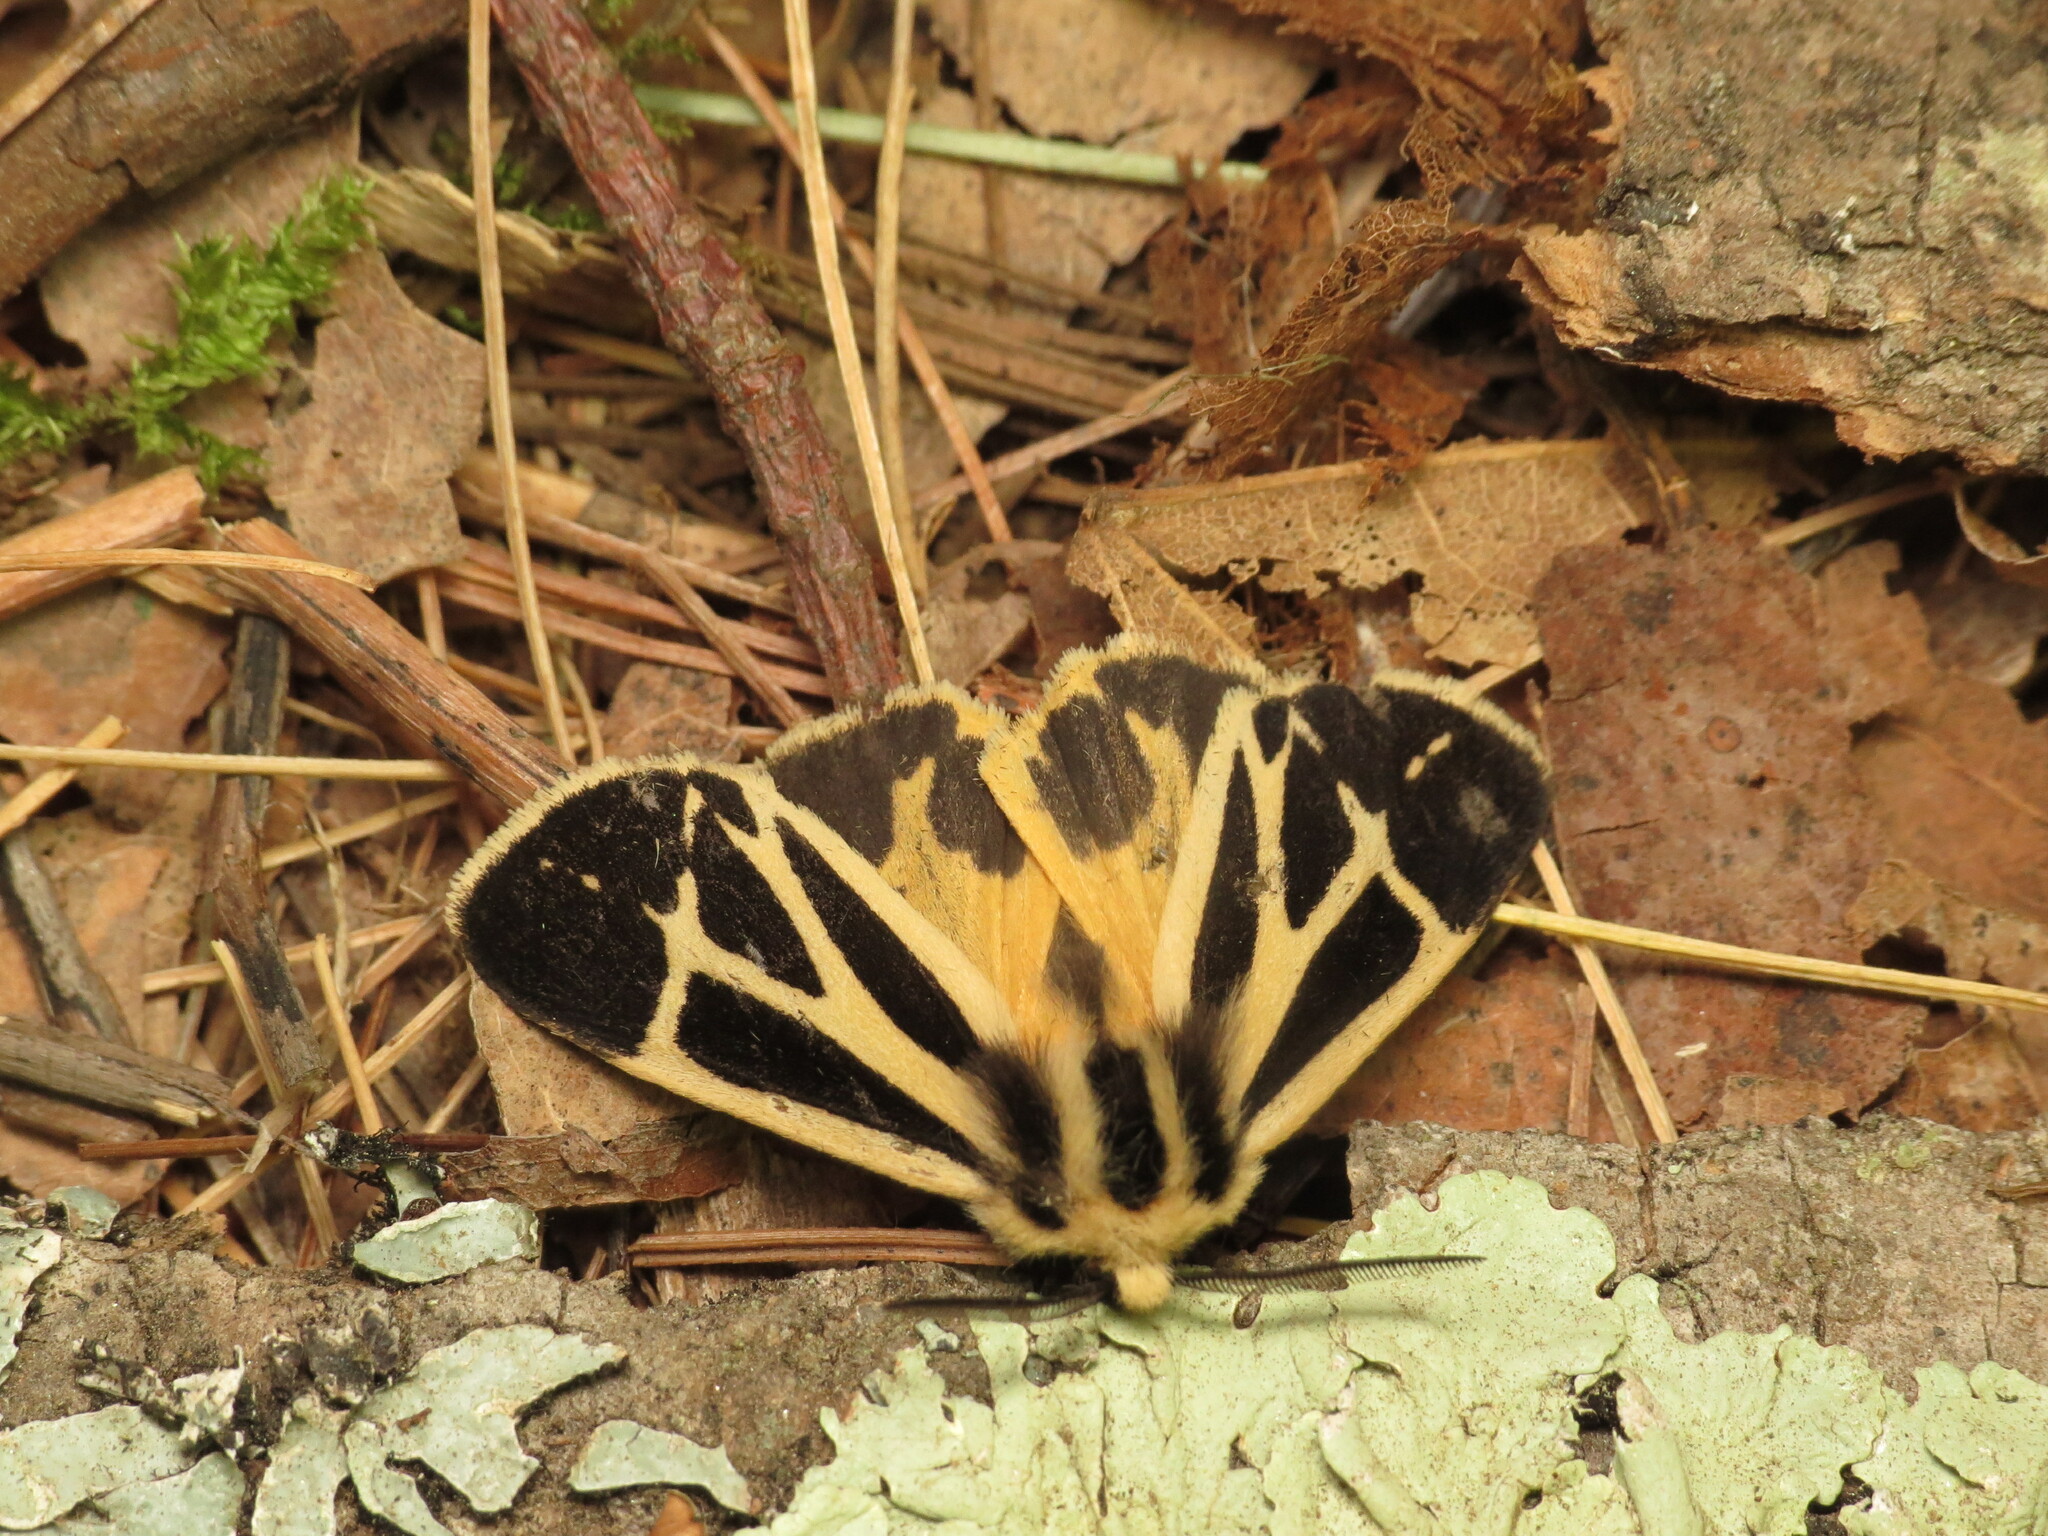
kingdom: Animalia
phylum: Arthropoda
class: Insecta
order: Lepidoptera
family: Erebidae
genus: Apantesis
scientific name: Apantesis nais
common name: Nais tiger moth
